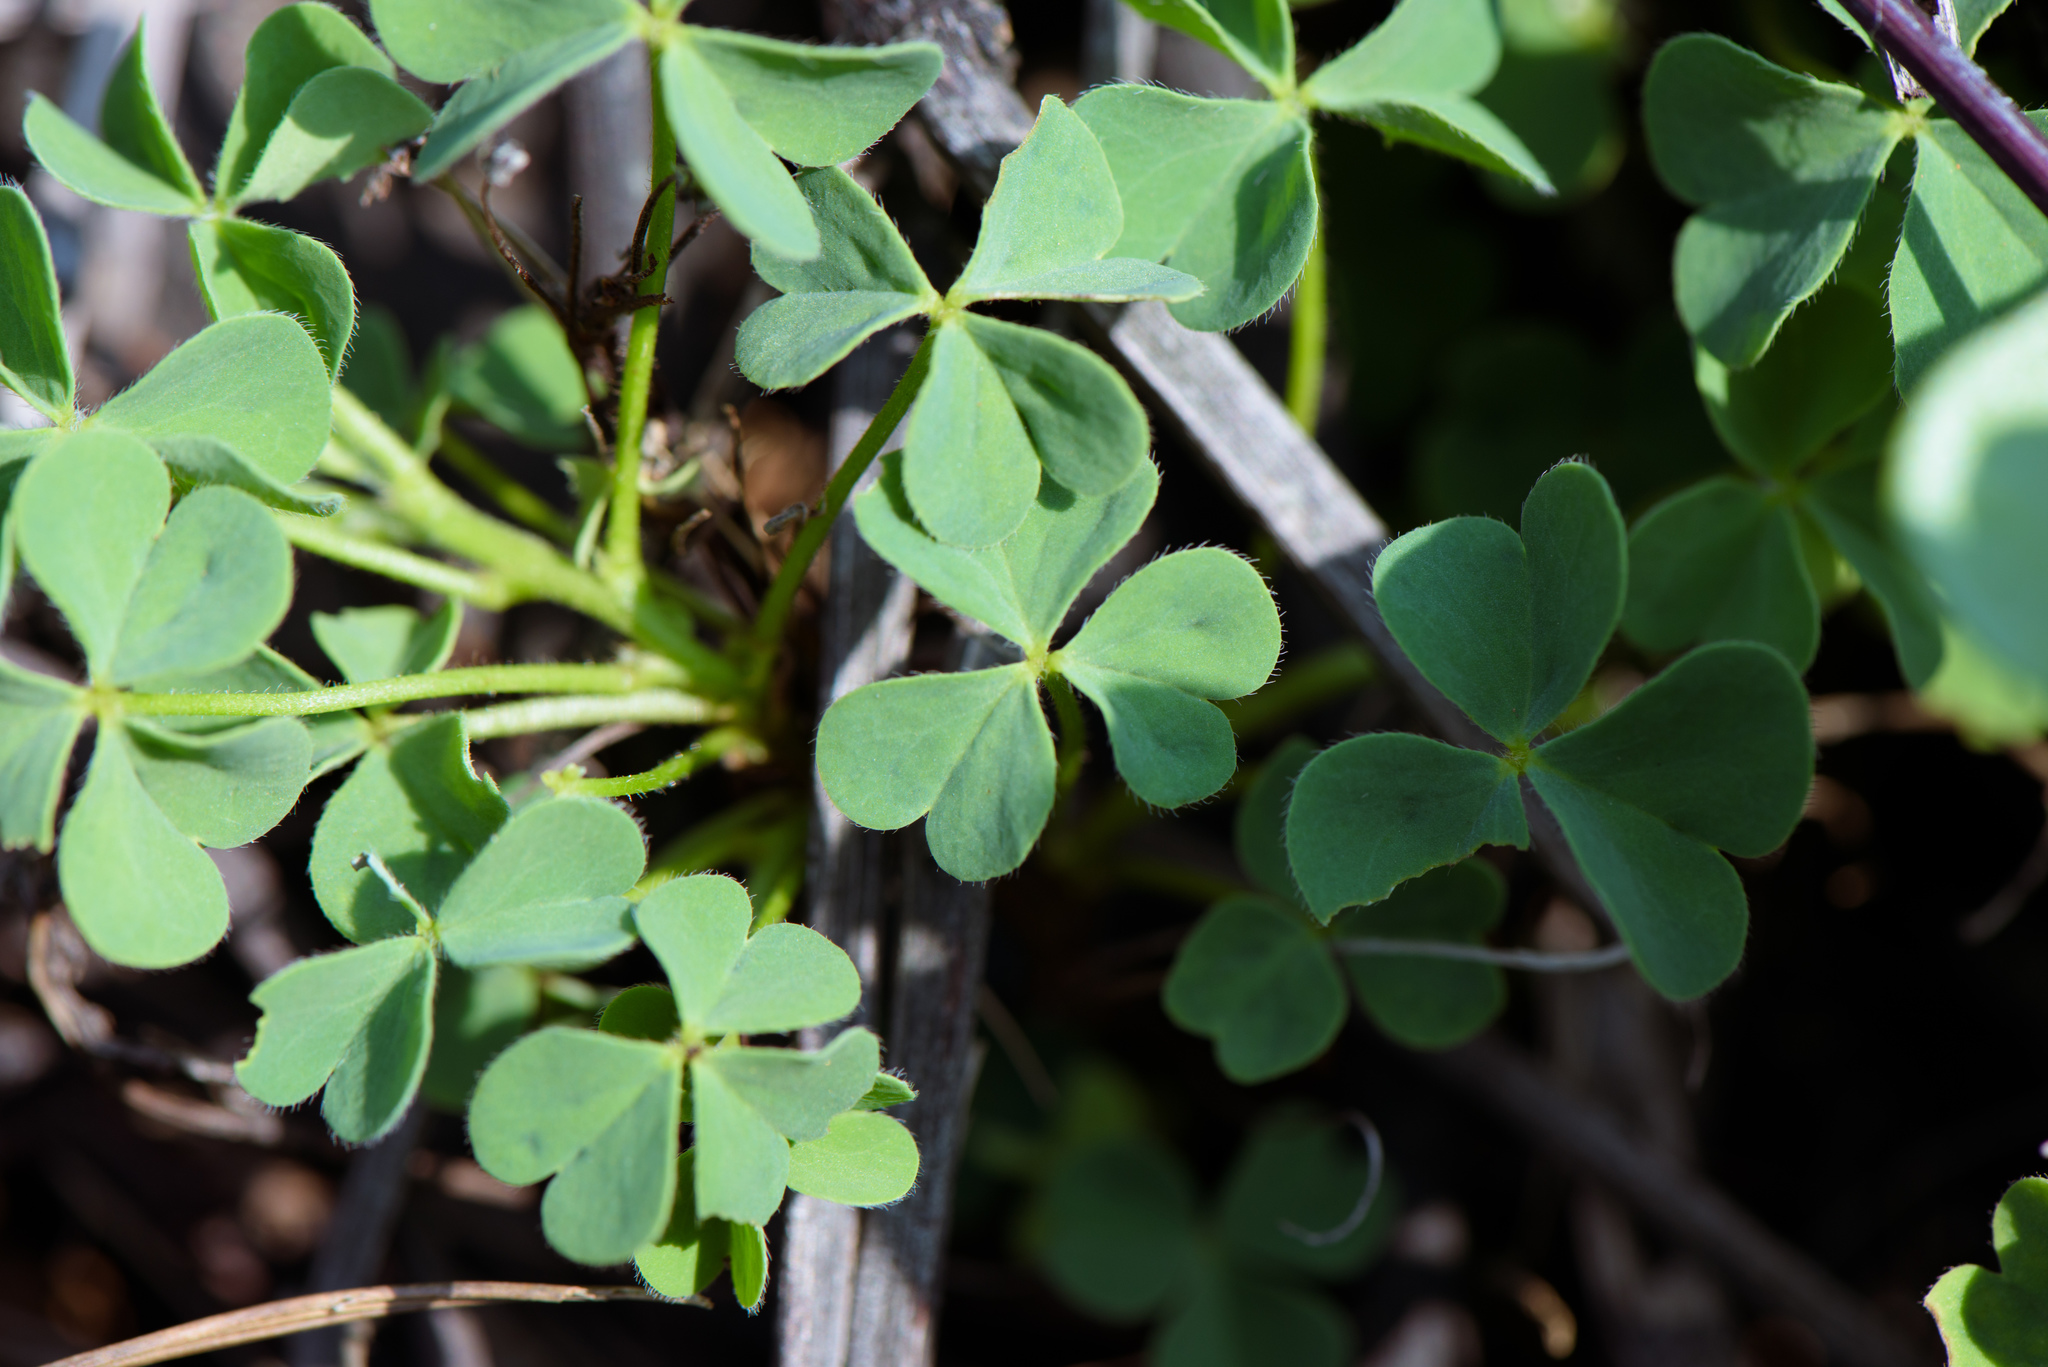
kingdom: Plantae
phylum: Tracheophyta
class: Magnoliopsida
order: Oxalidales
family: Oxalidaceae
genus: Oxalis
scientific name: Oxalis corniculata
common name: Procumbent yellow-sorrel
